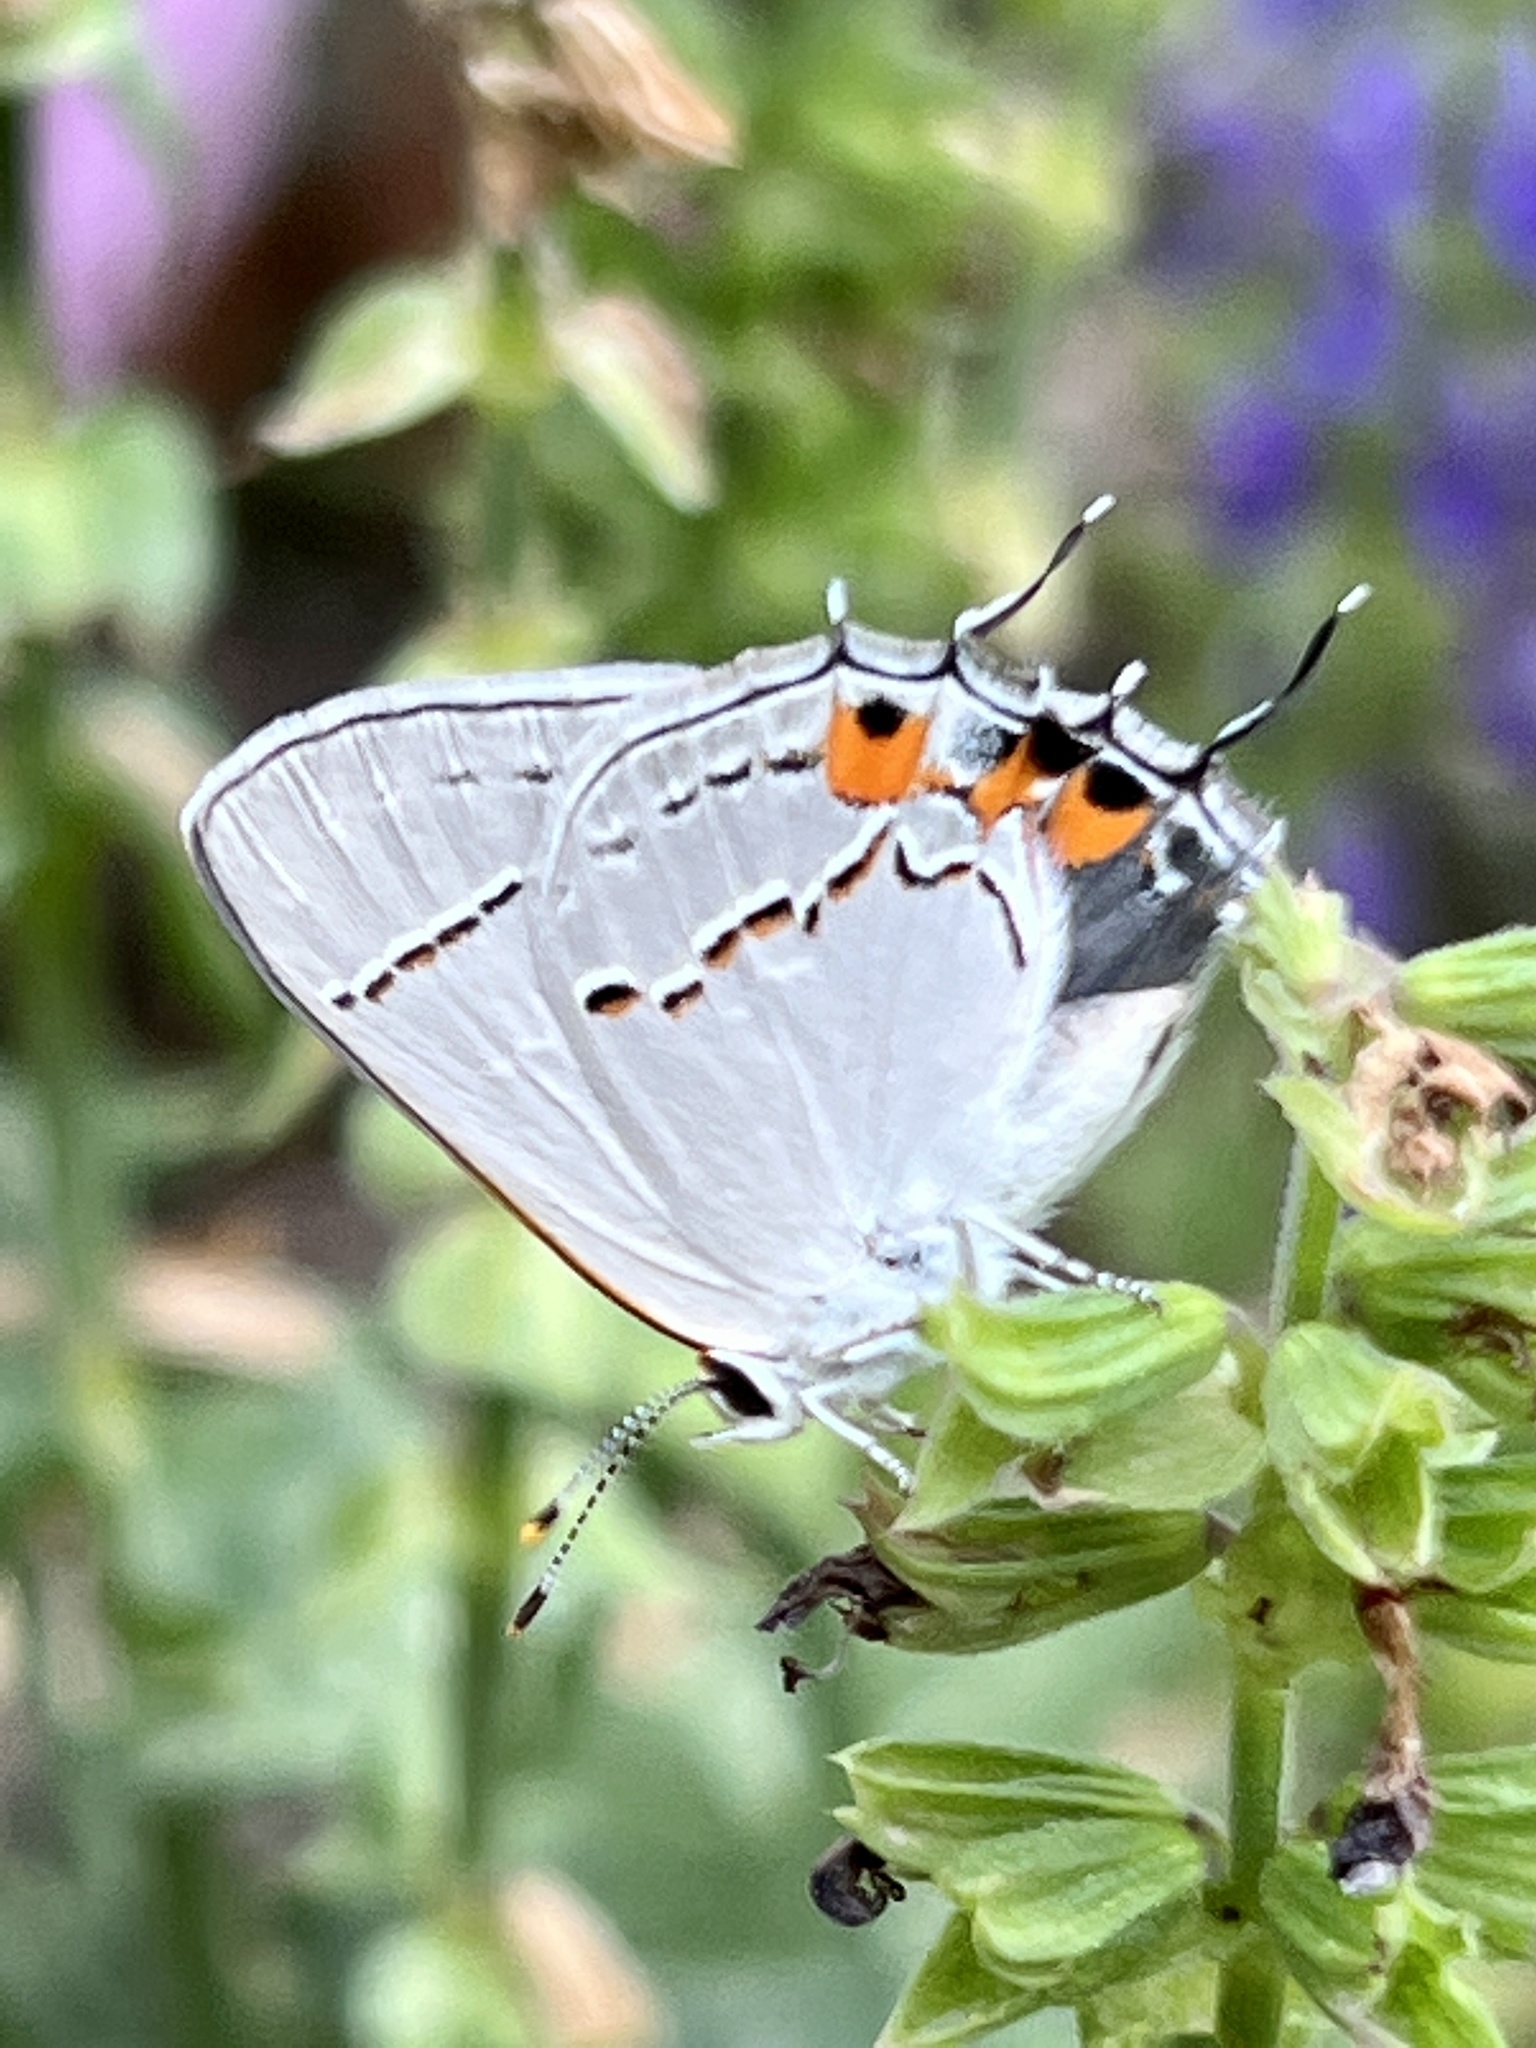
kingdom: Animalia
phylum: Arthropoda
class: Insecta
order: Lepidoptera
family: Lycaenidae
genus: Strymon
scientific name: Strymon melinus
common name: Gray hairstreak
